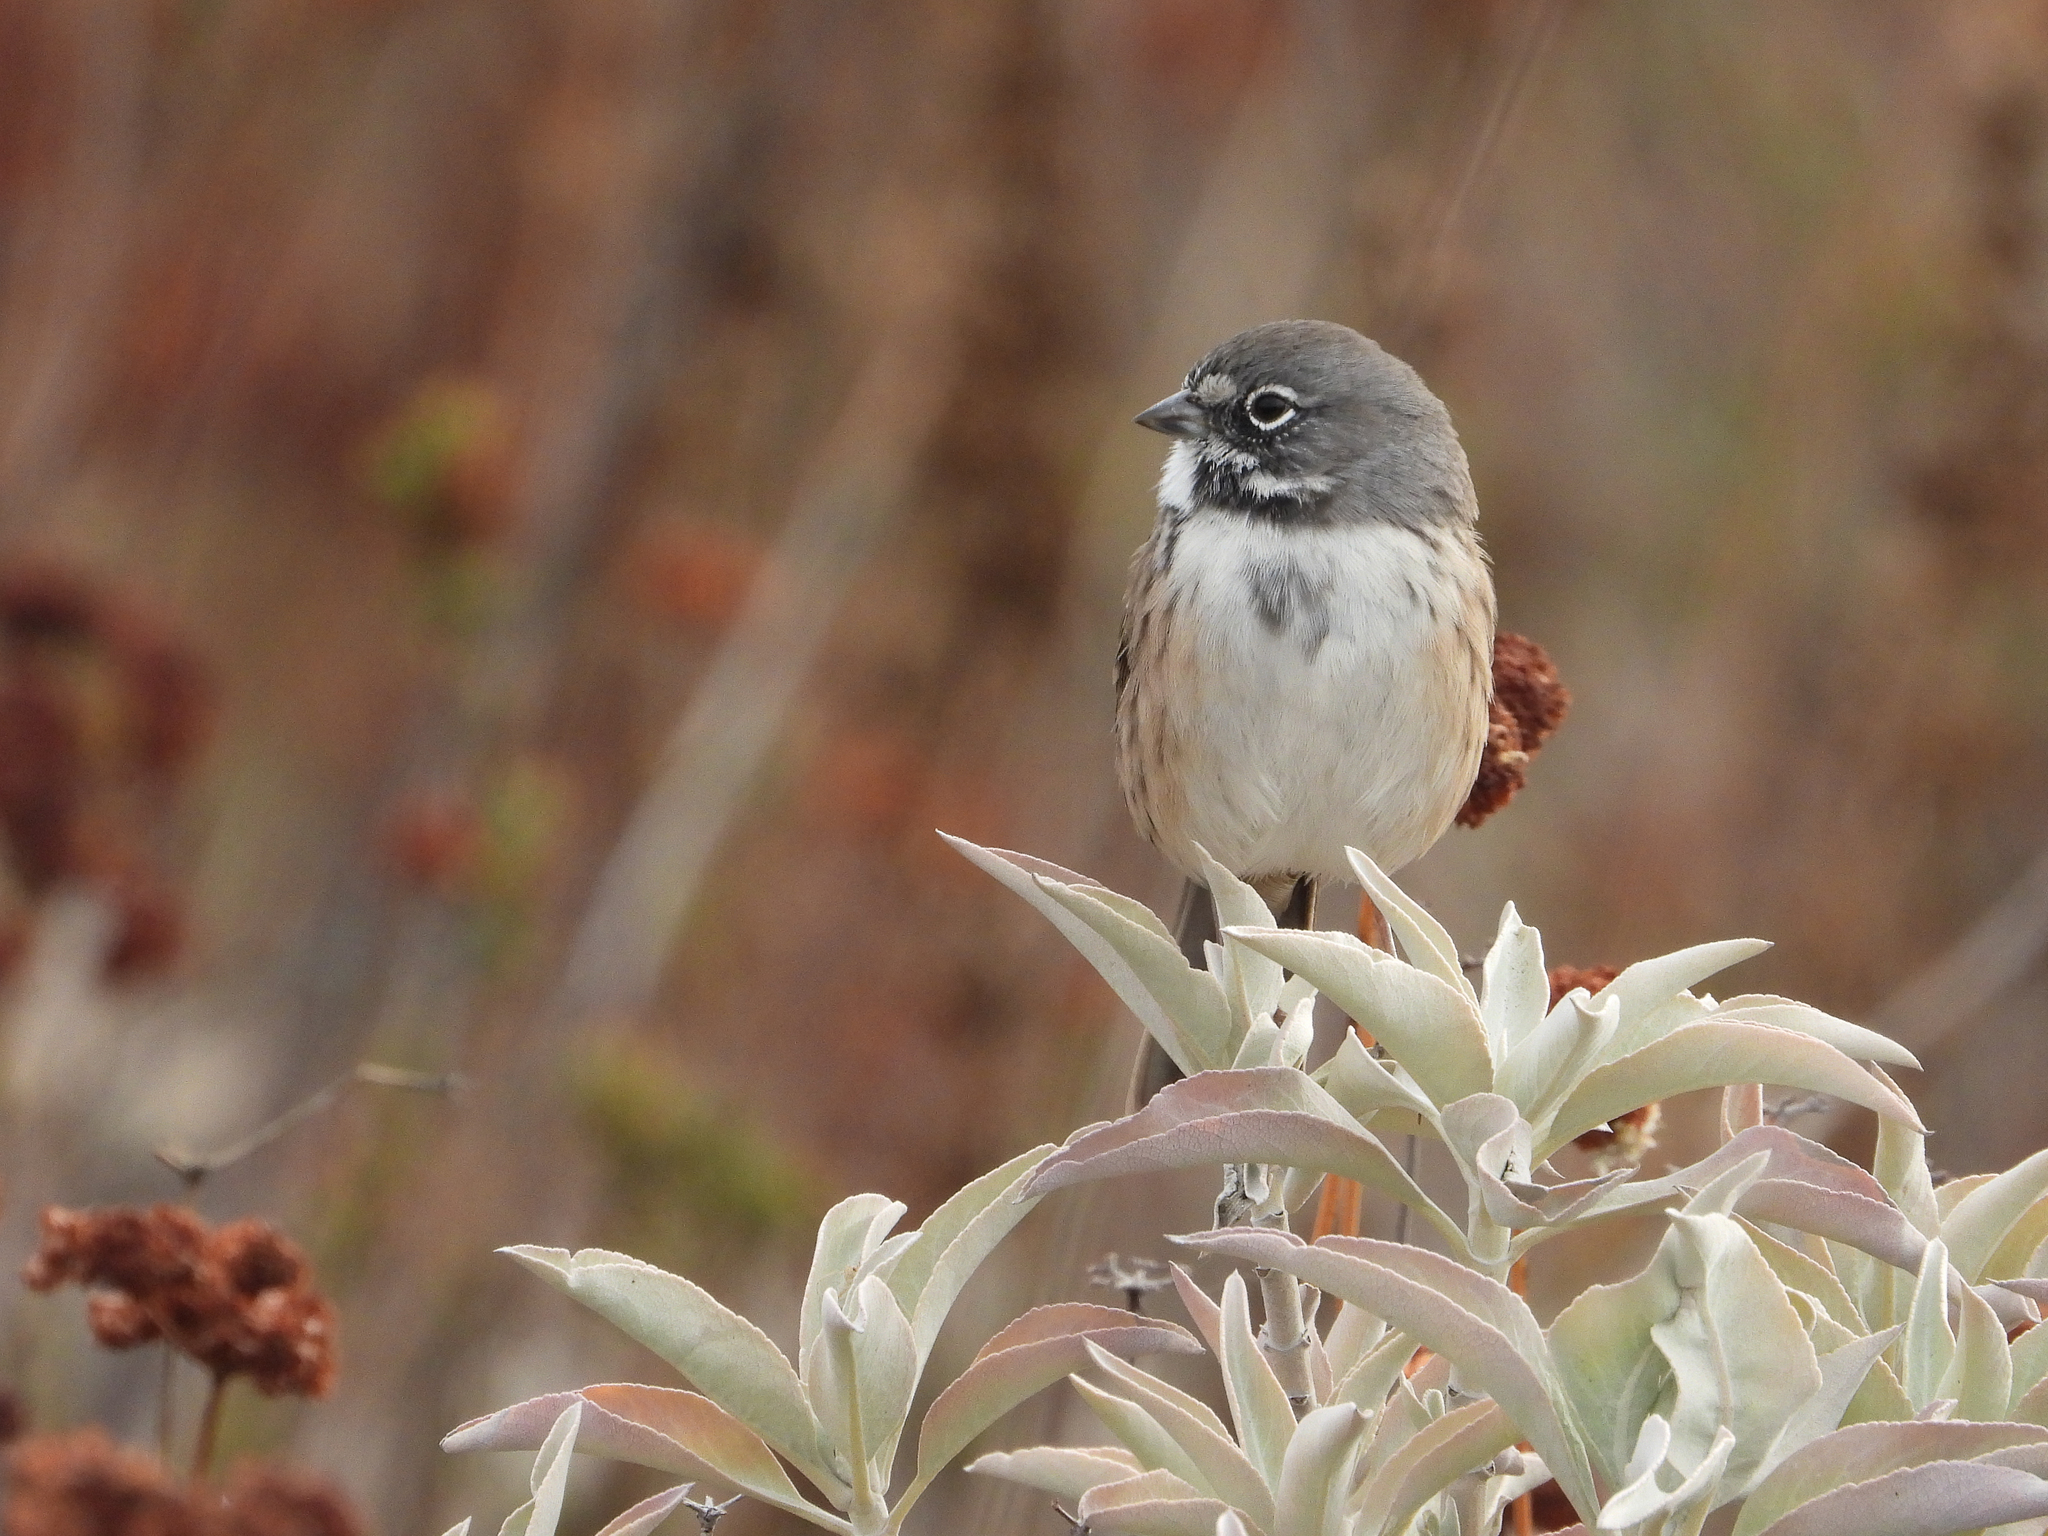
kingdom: Animalia
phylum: Chordata
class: Aves
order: Passeriformes
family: Passerellidae
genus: Artemisiospiza
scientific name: Artemisiospiza belli
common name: Bell's sparrow
